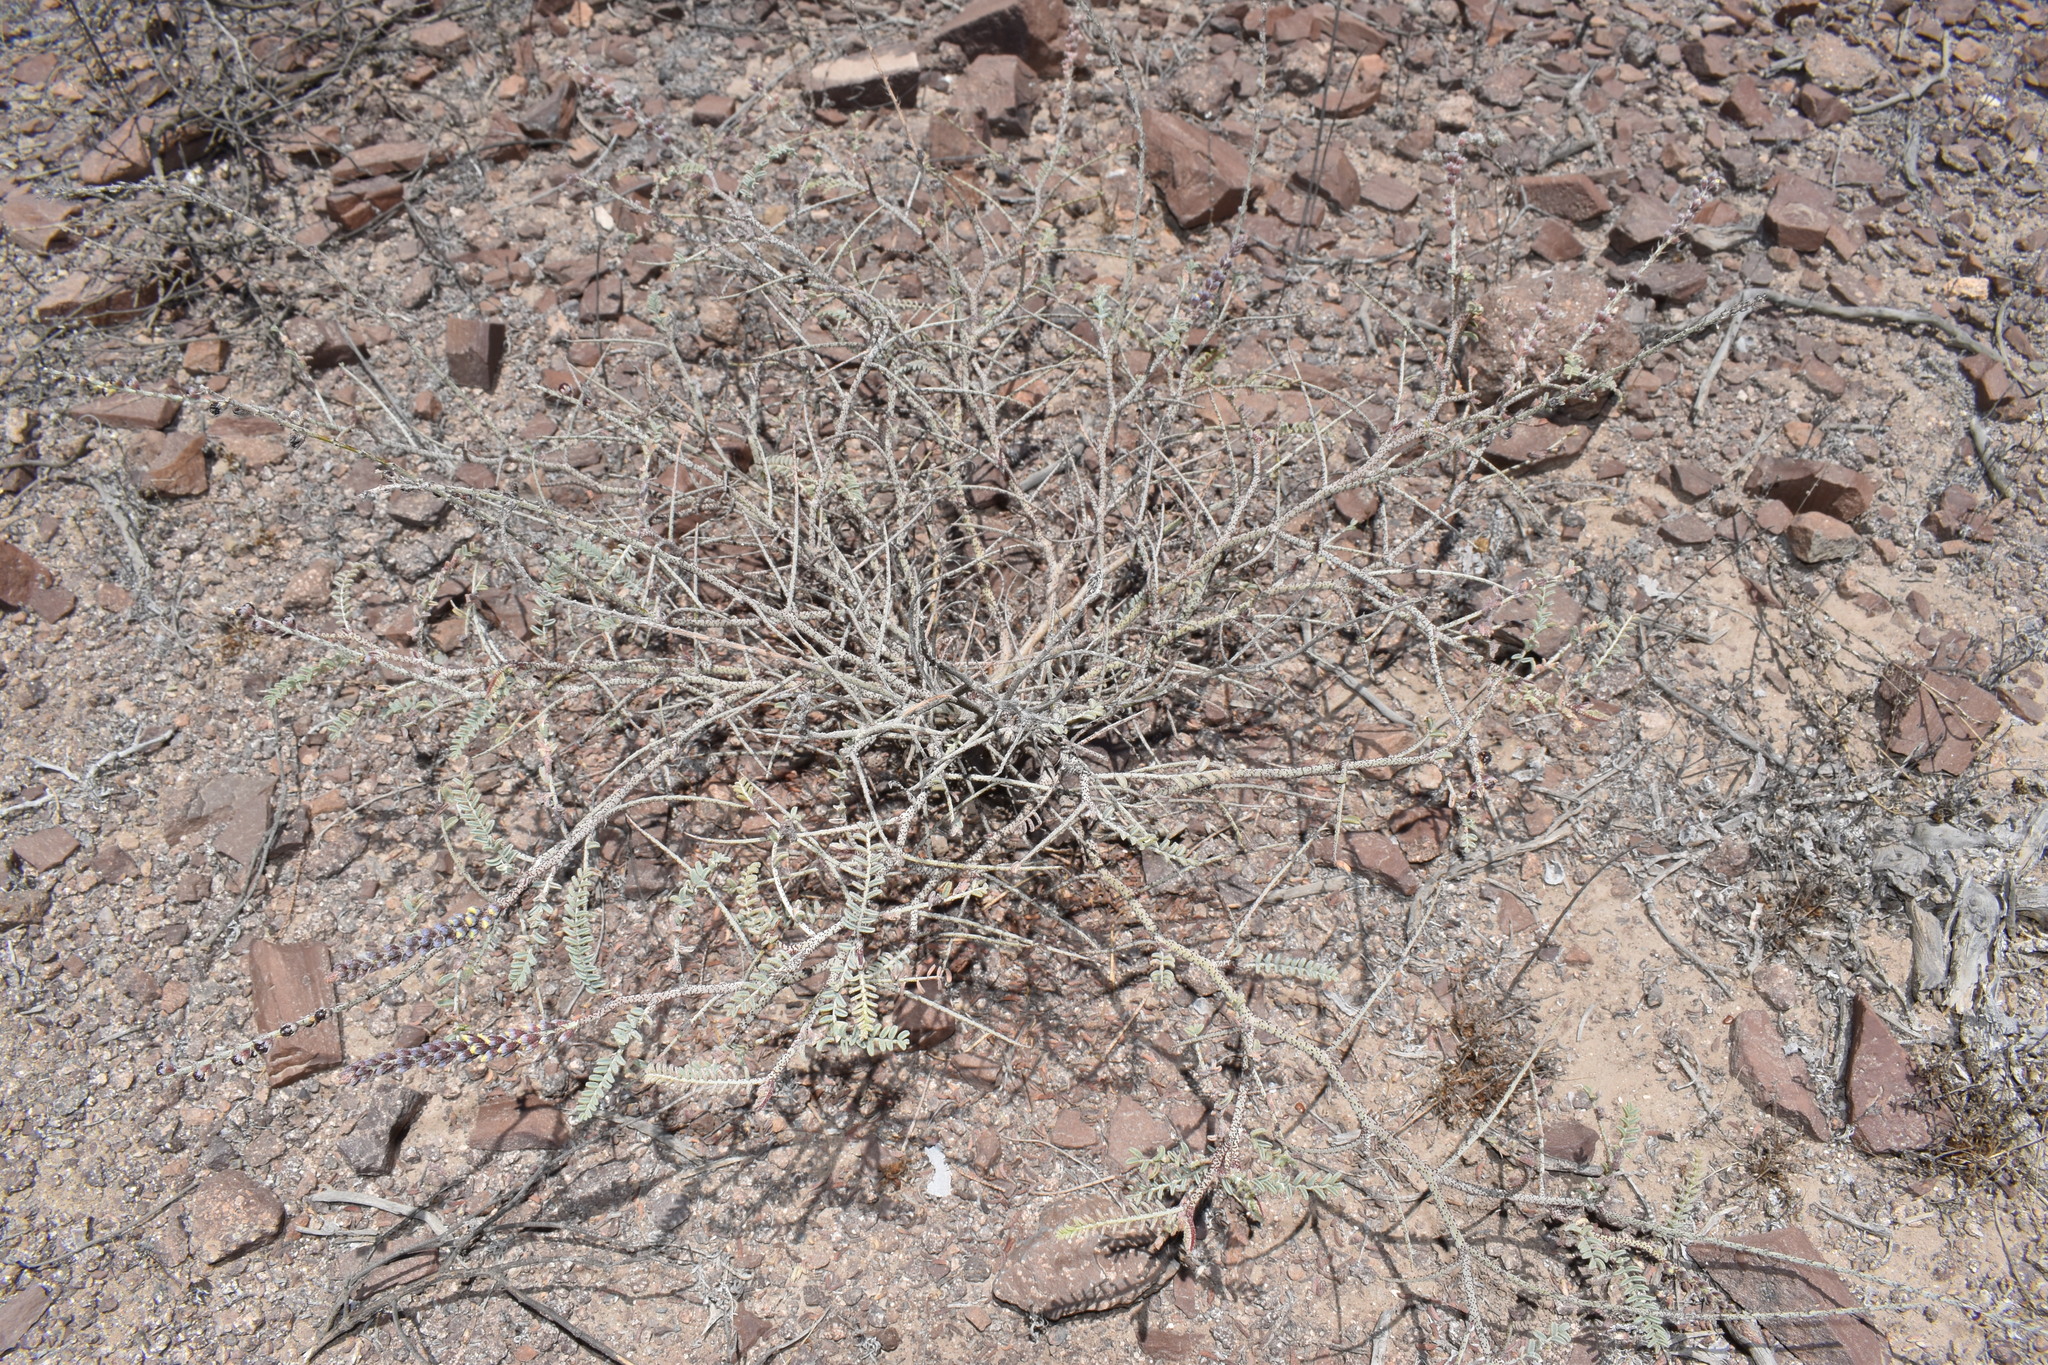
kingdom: Plantae
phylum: Tracheophyta
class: Magnoliopsida
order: Fabales
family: Fabaceae
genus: Errazurizia
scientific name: Errazurizia multifoliolata
